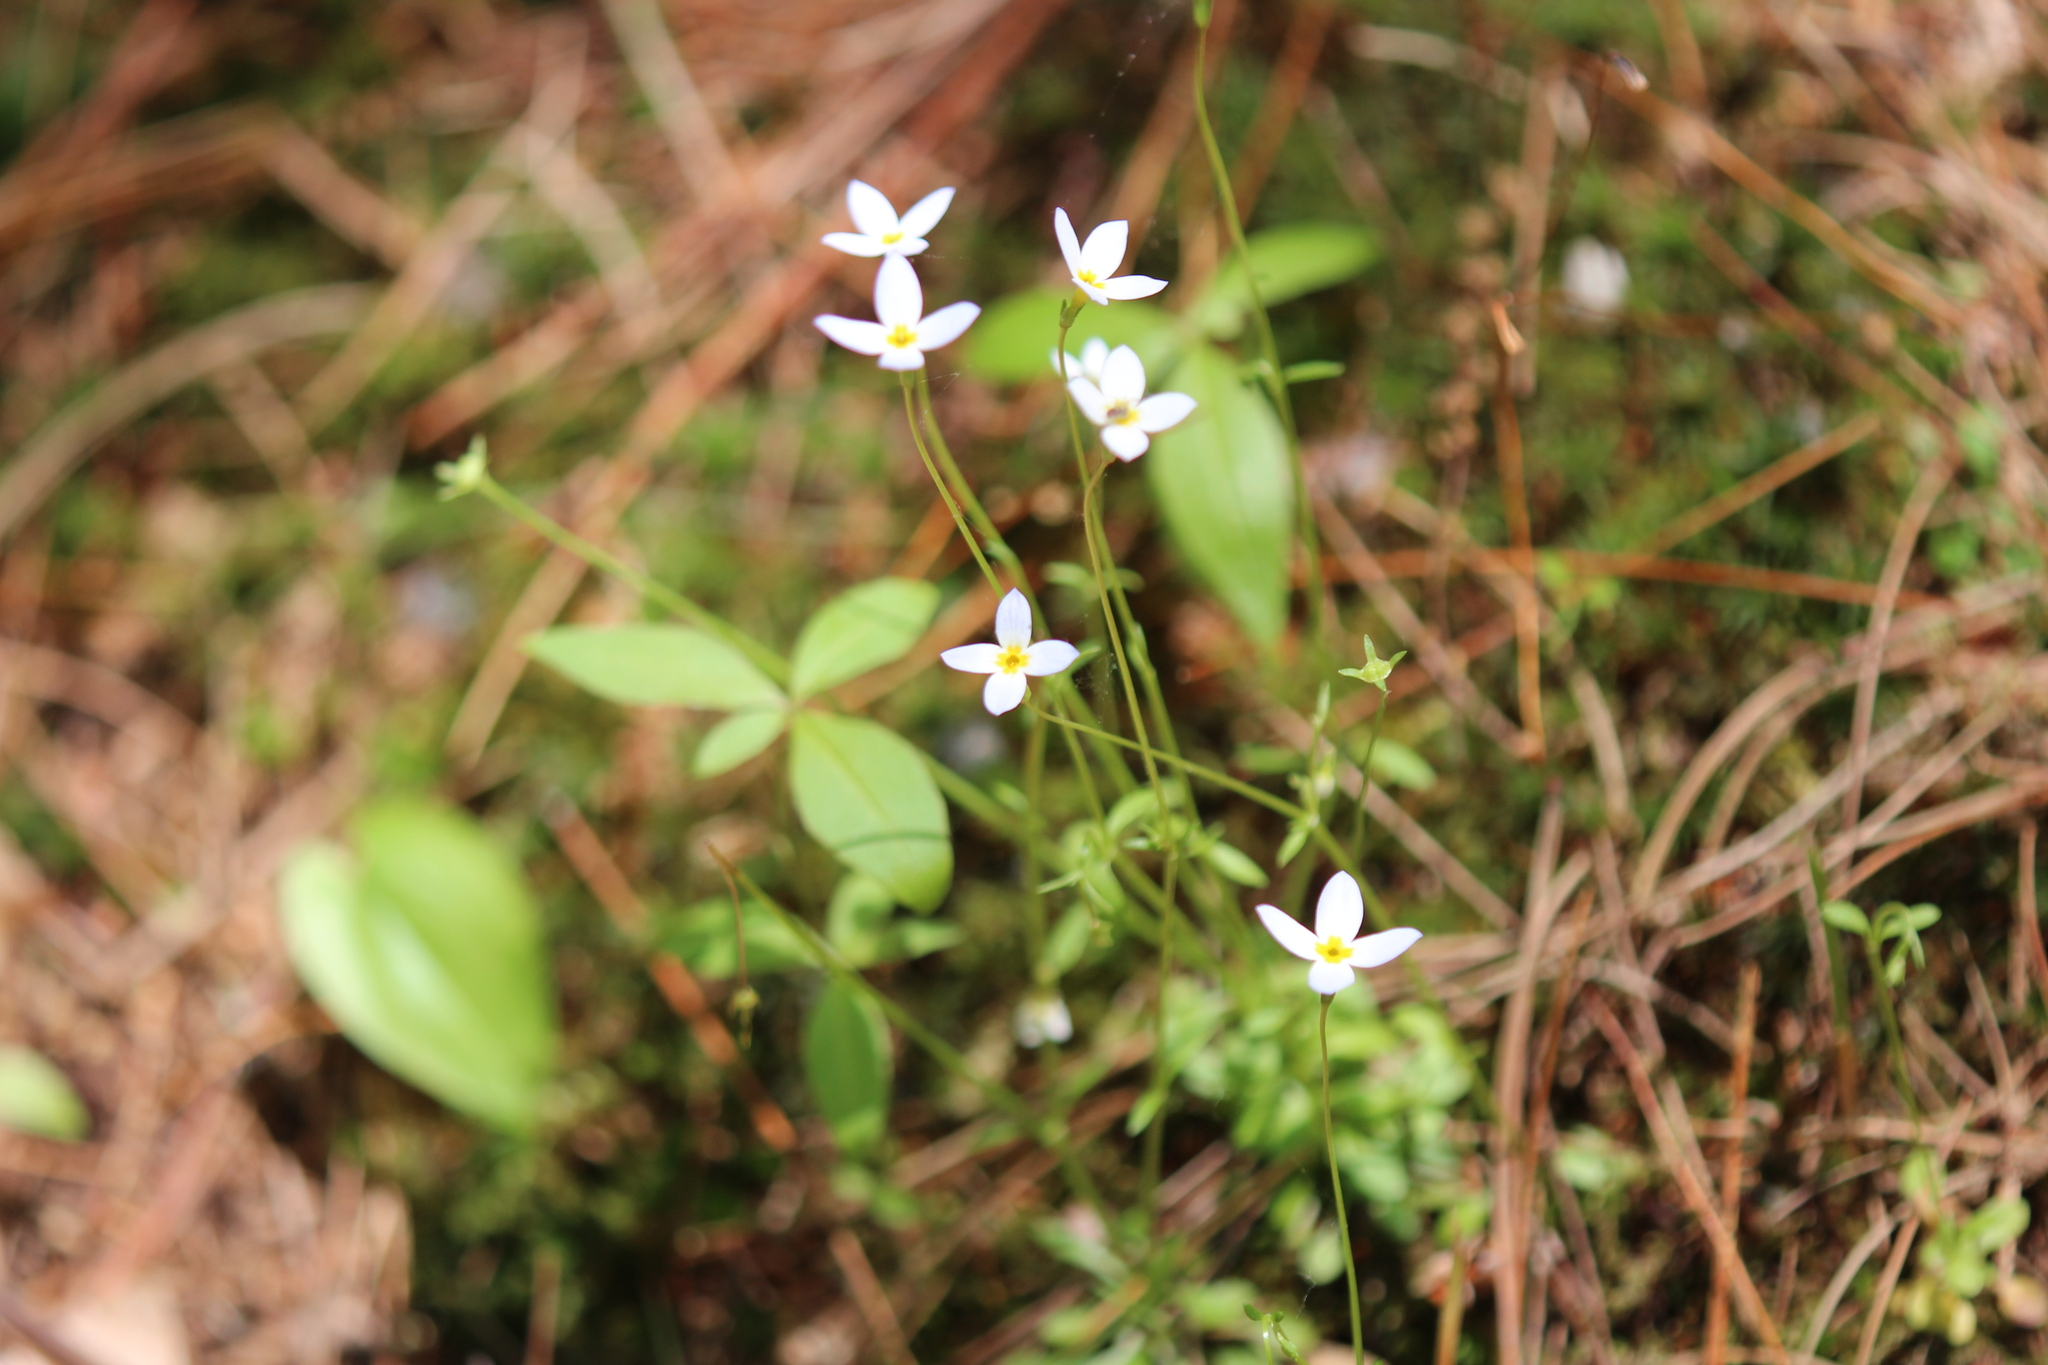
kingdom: Plantae
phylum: Tracheophyta
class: Magnoliopsida
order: Gentianales
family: Rubiaceae
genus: Houstonia
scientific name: Houstonia caerulea
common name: Bluets
